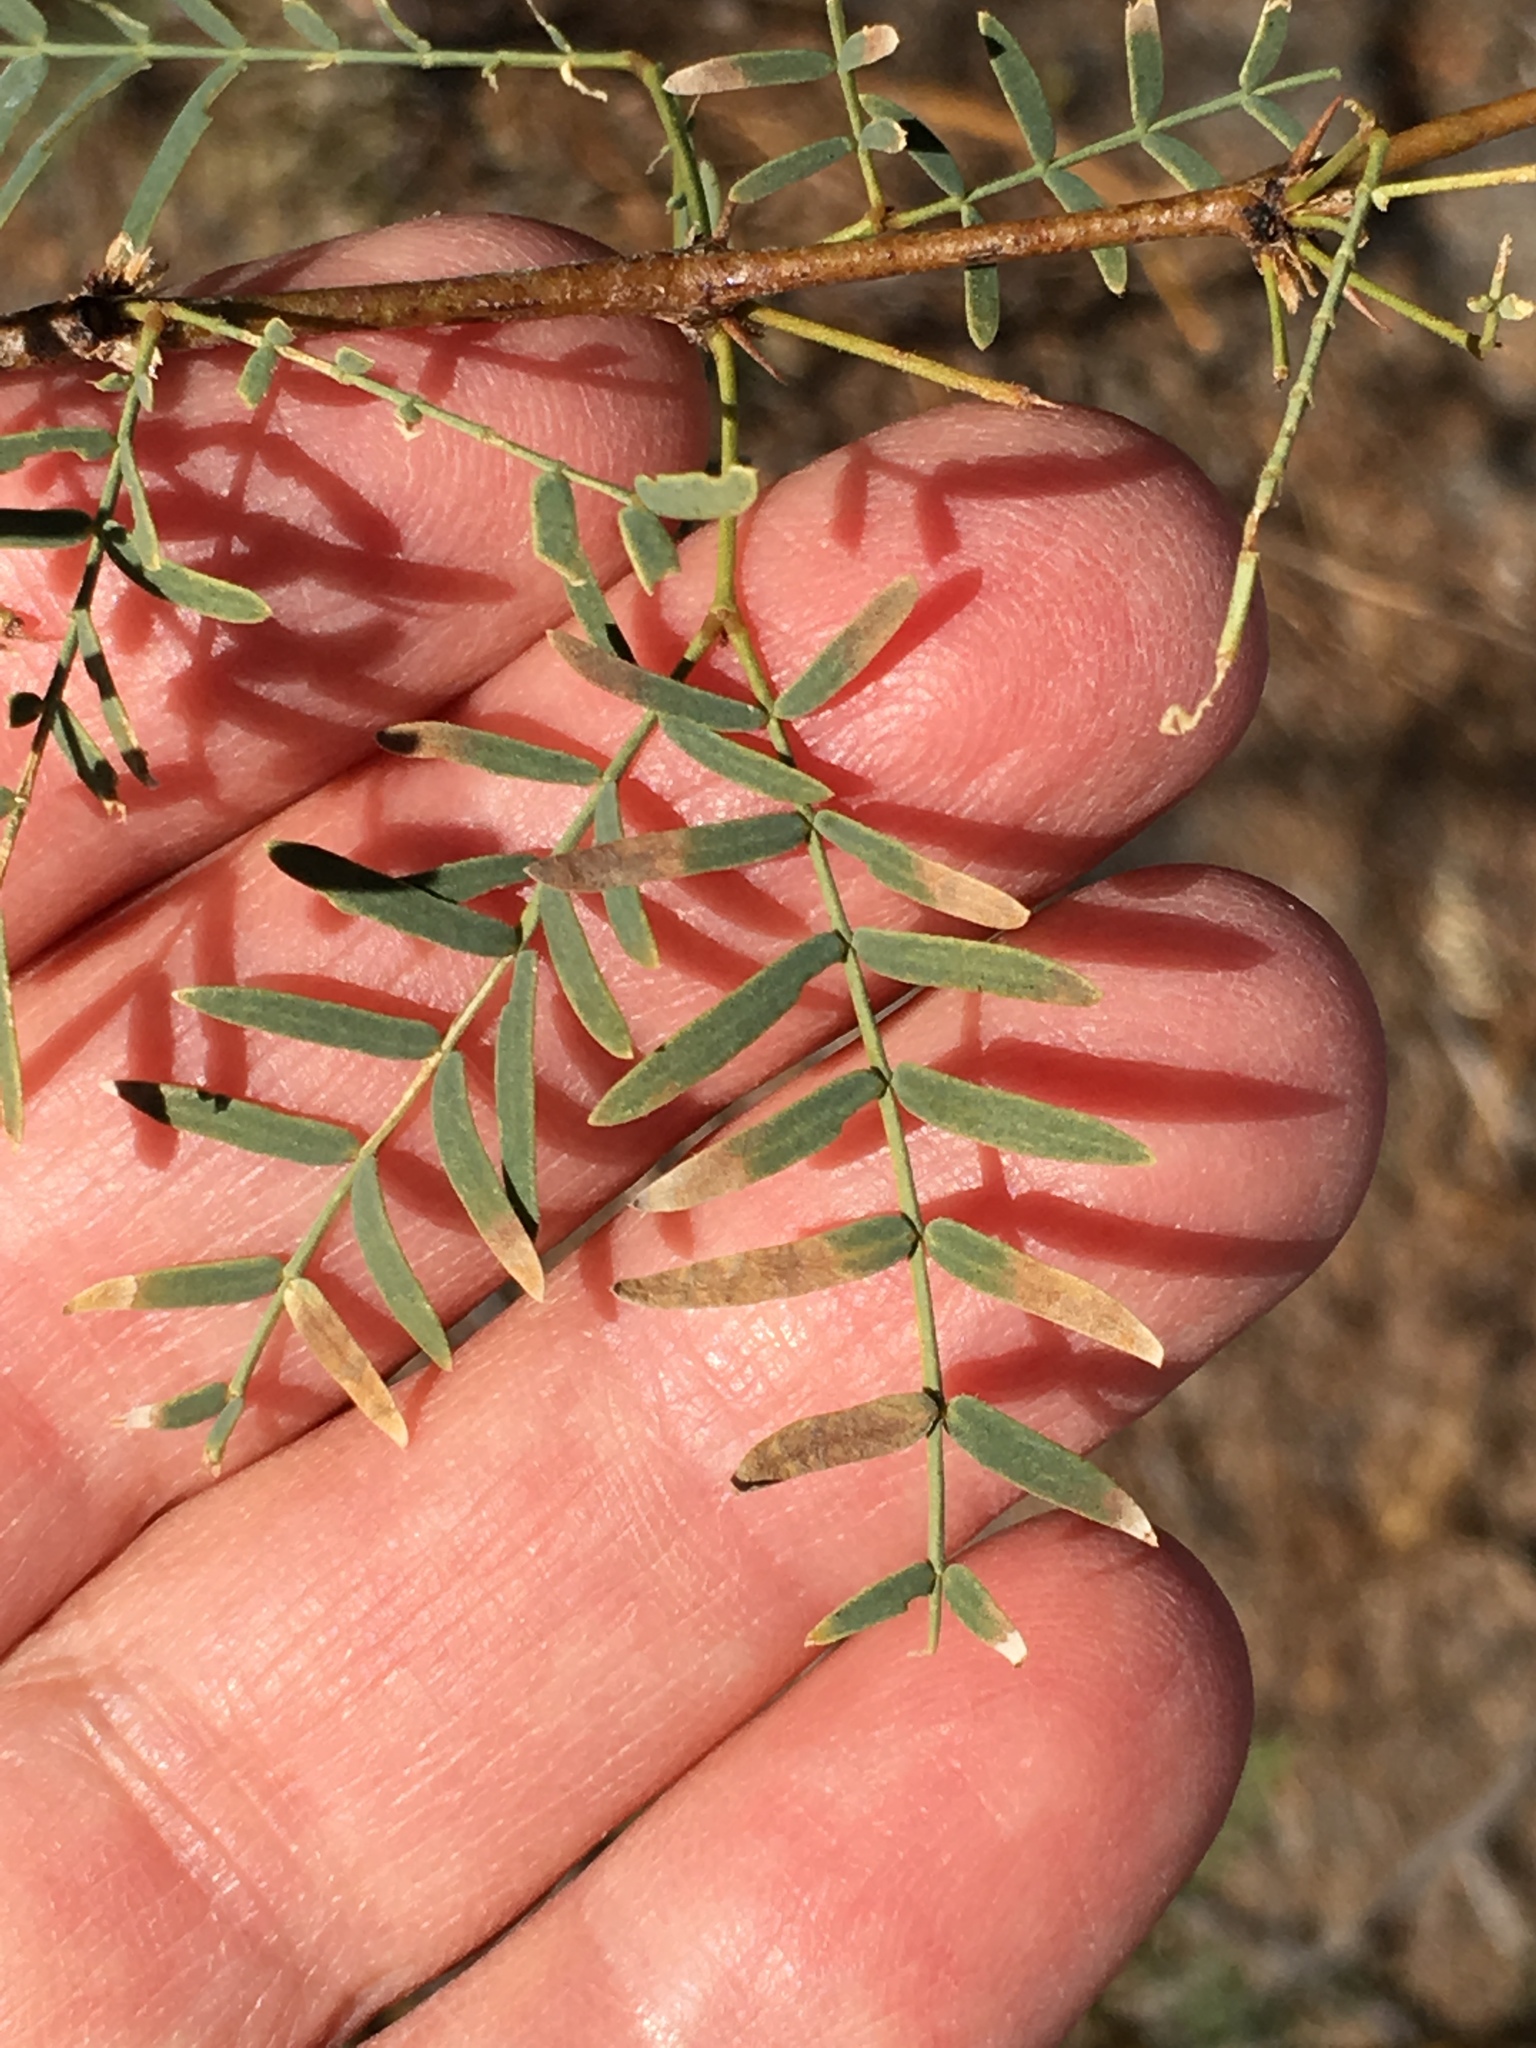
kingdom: Plantae
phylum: Tracheophyta
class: Magnoliopsida
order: Fabales
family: Fabaceae
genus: Prosopis
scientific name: Prosopis pubescens
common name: Screw-bean
